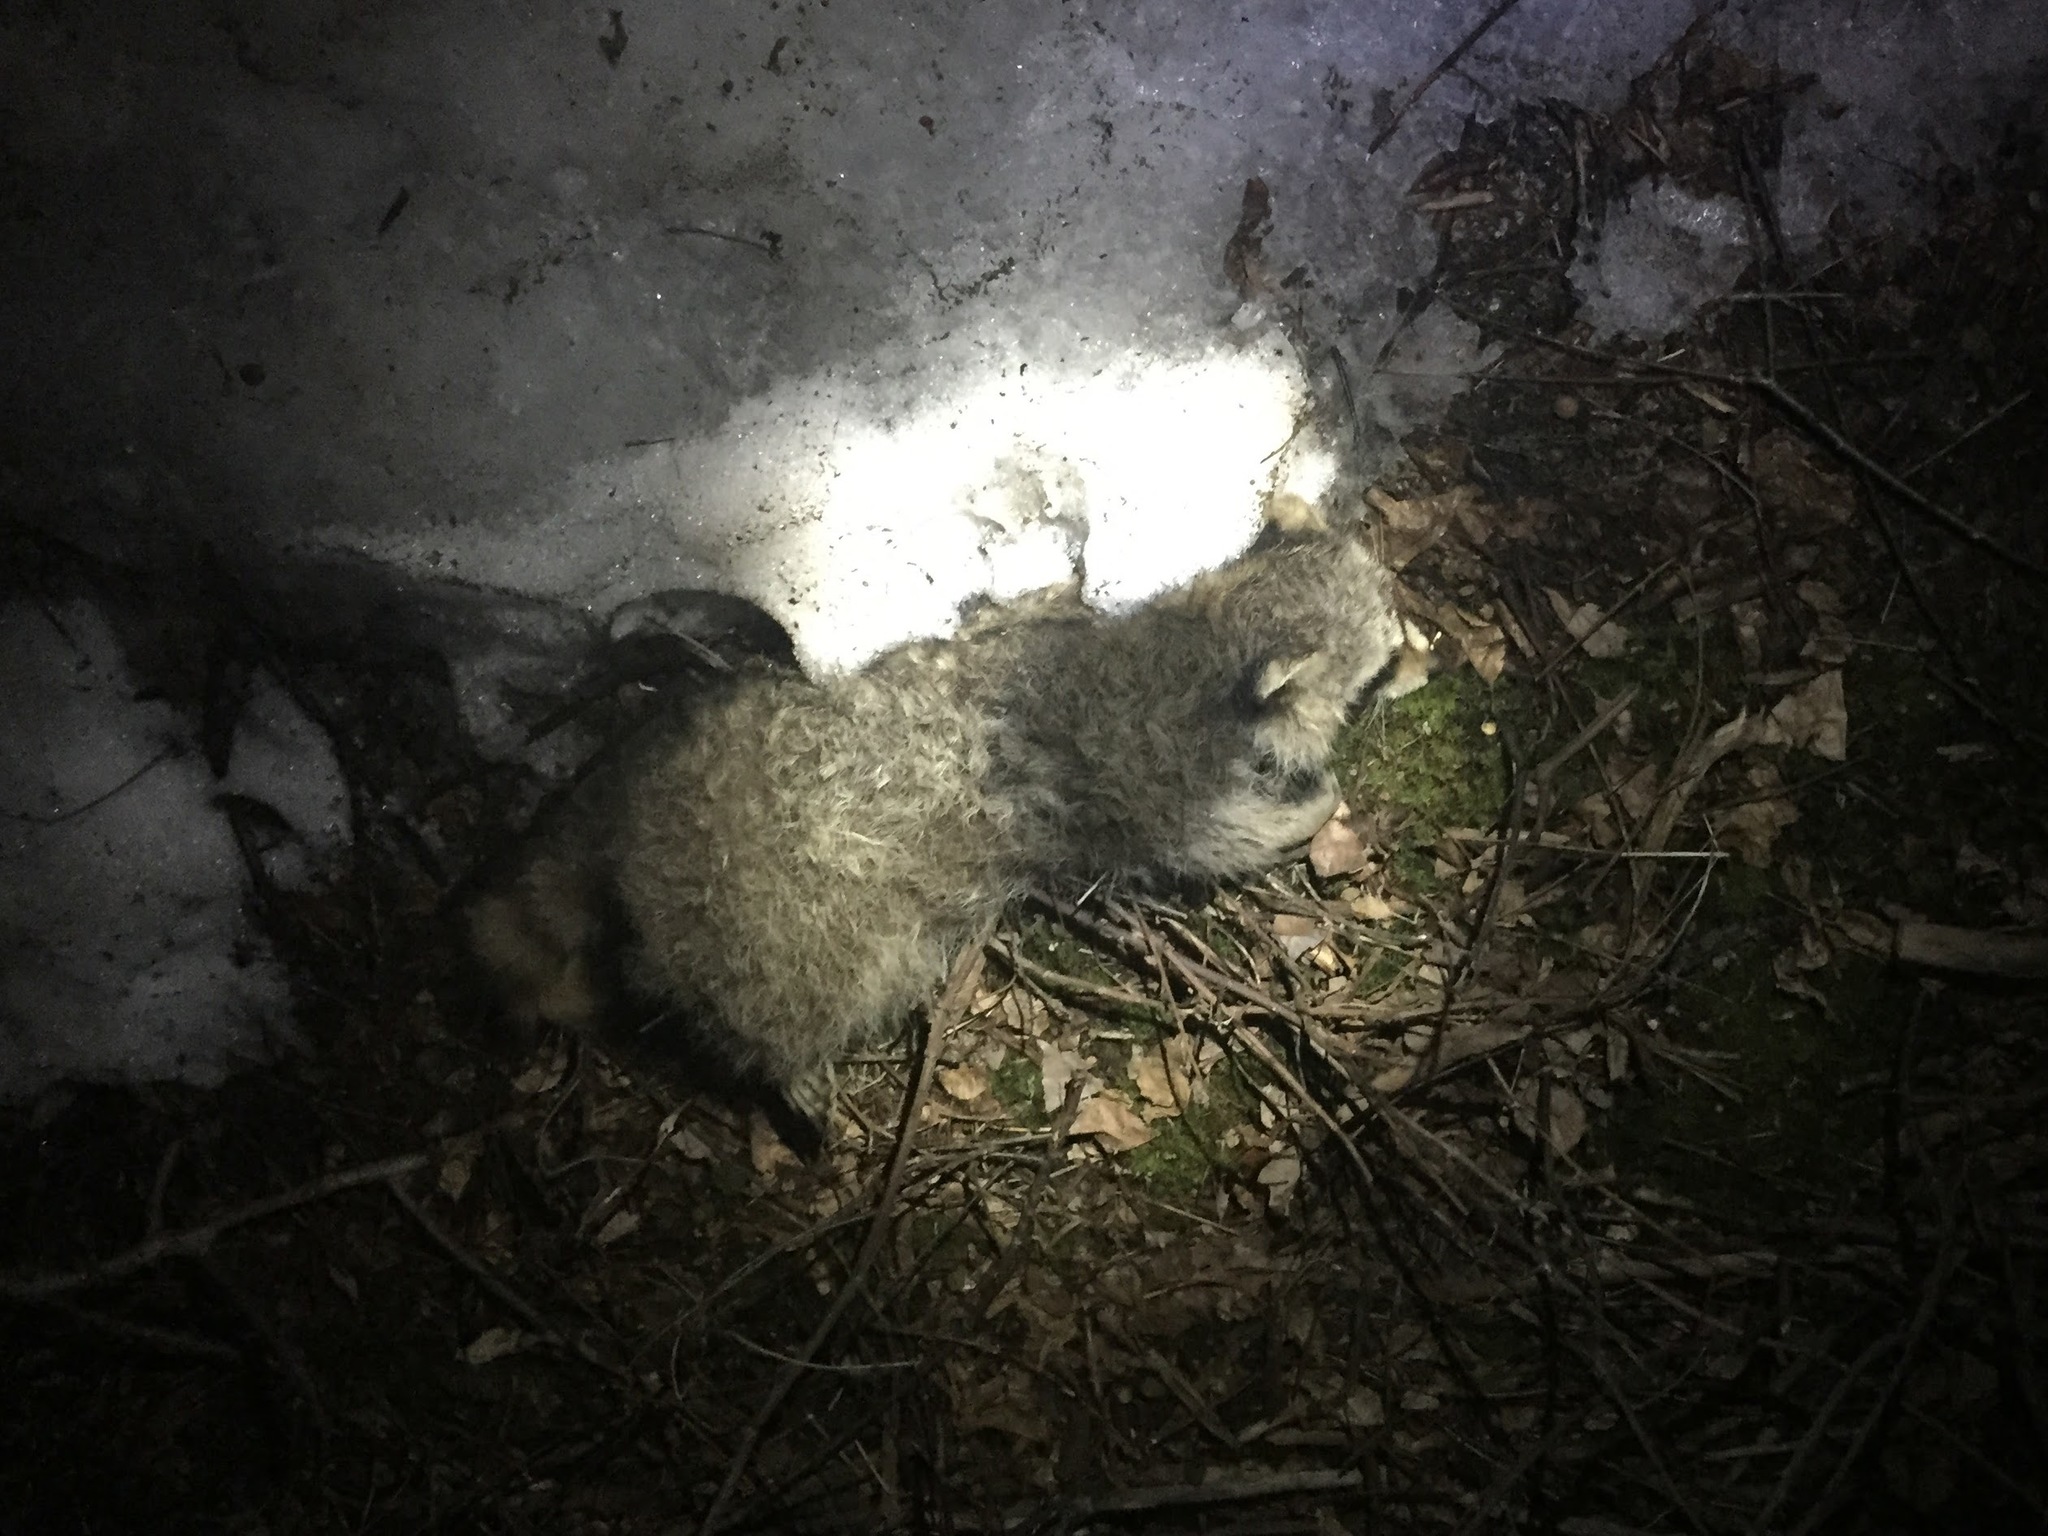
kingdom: Animalia
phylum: Chordata
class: Mammalia
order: Carnivora
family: Procyonidae
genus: Procyon
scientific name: Procyon lotor
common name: Raccoon
